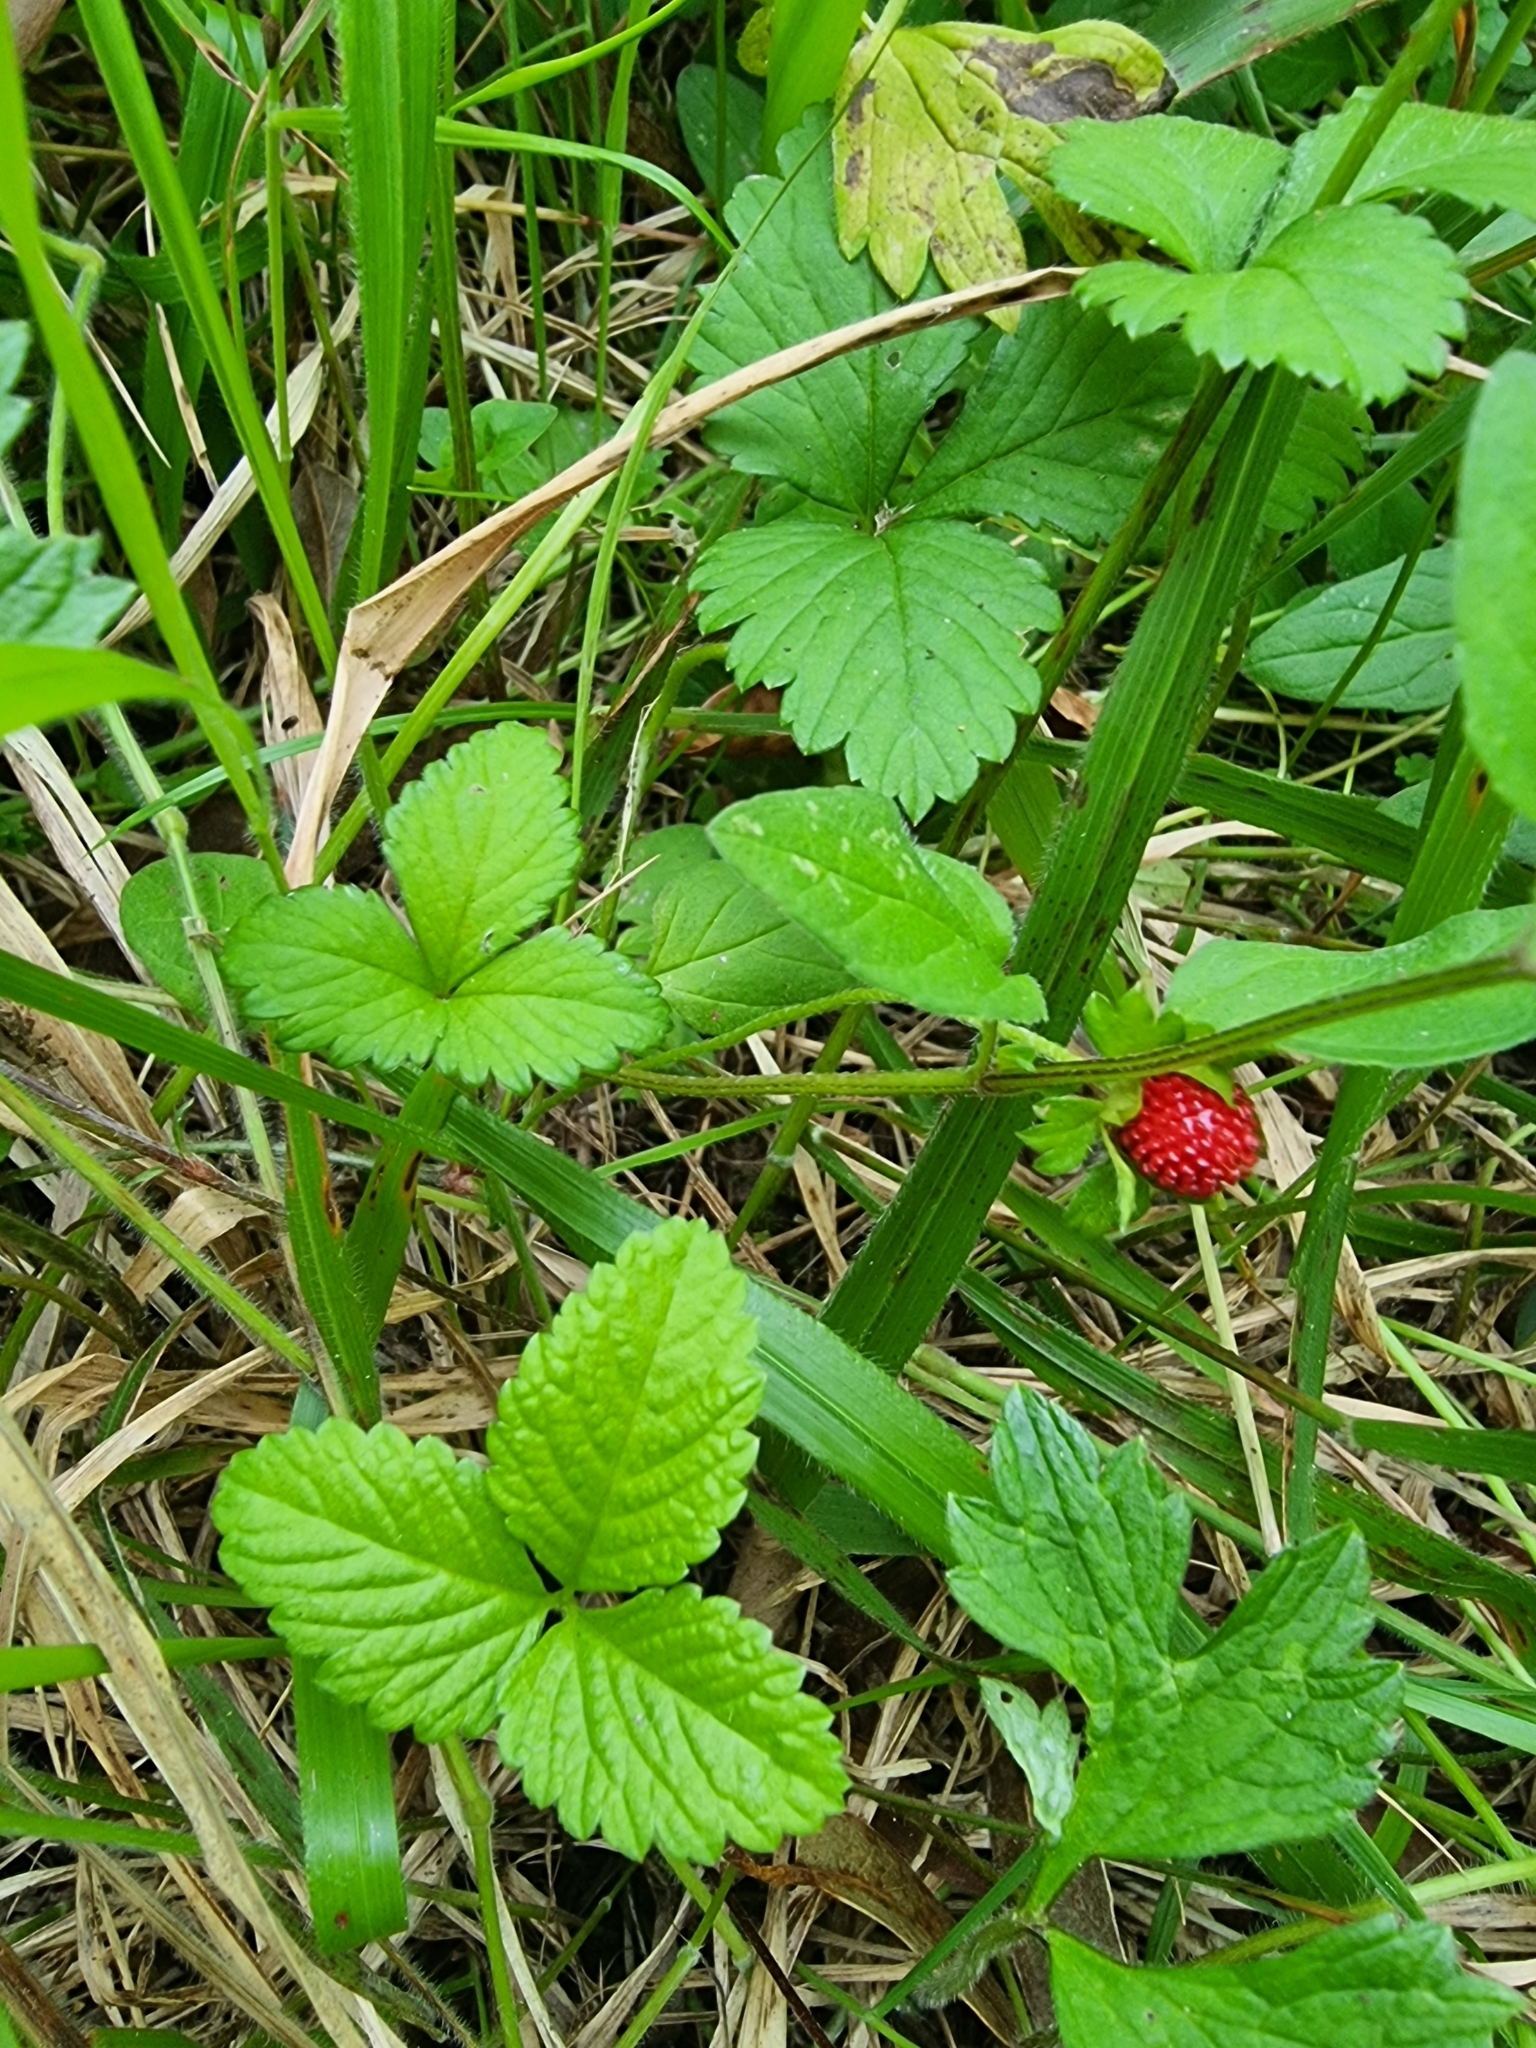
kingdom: Plantae
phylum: Tracheophyta
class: Magnoliopsida
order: Rosales
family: Rosaceae
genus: Potentilla
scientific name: Potentilla indica
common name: Yellow-flowered strawberry
